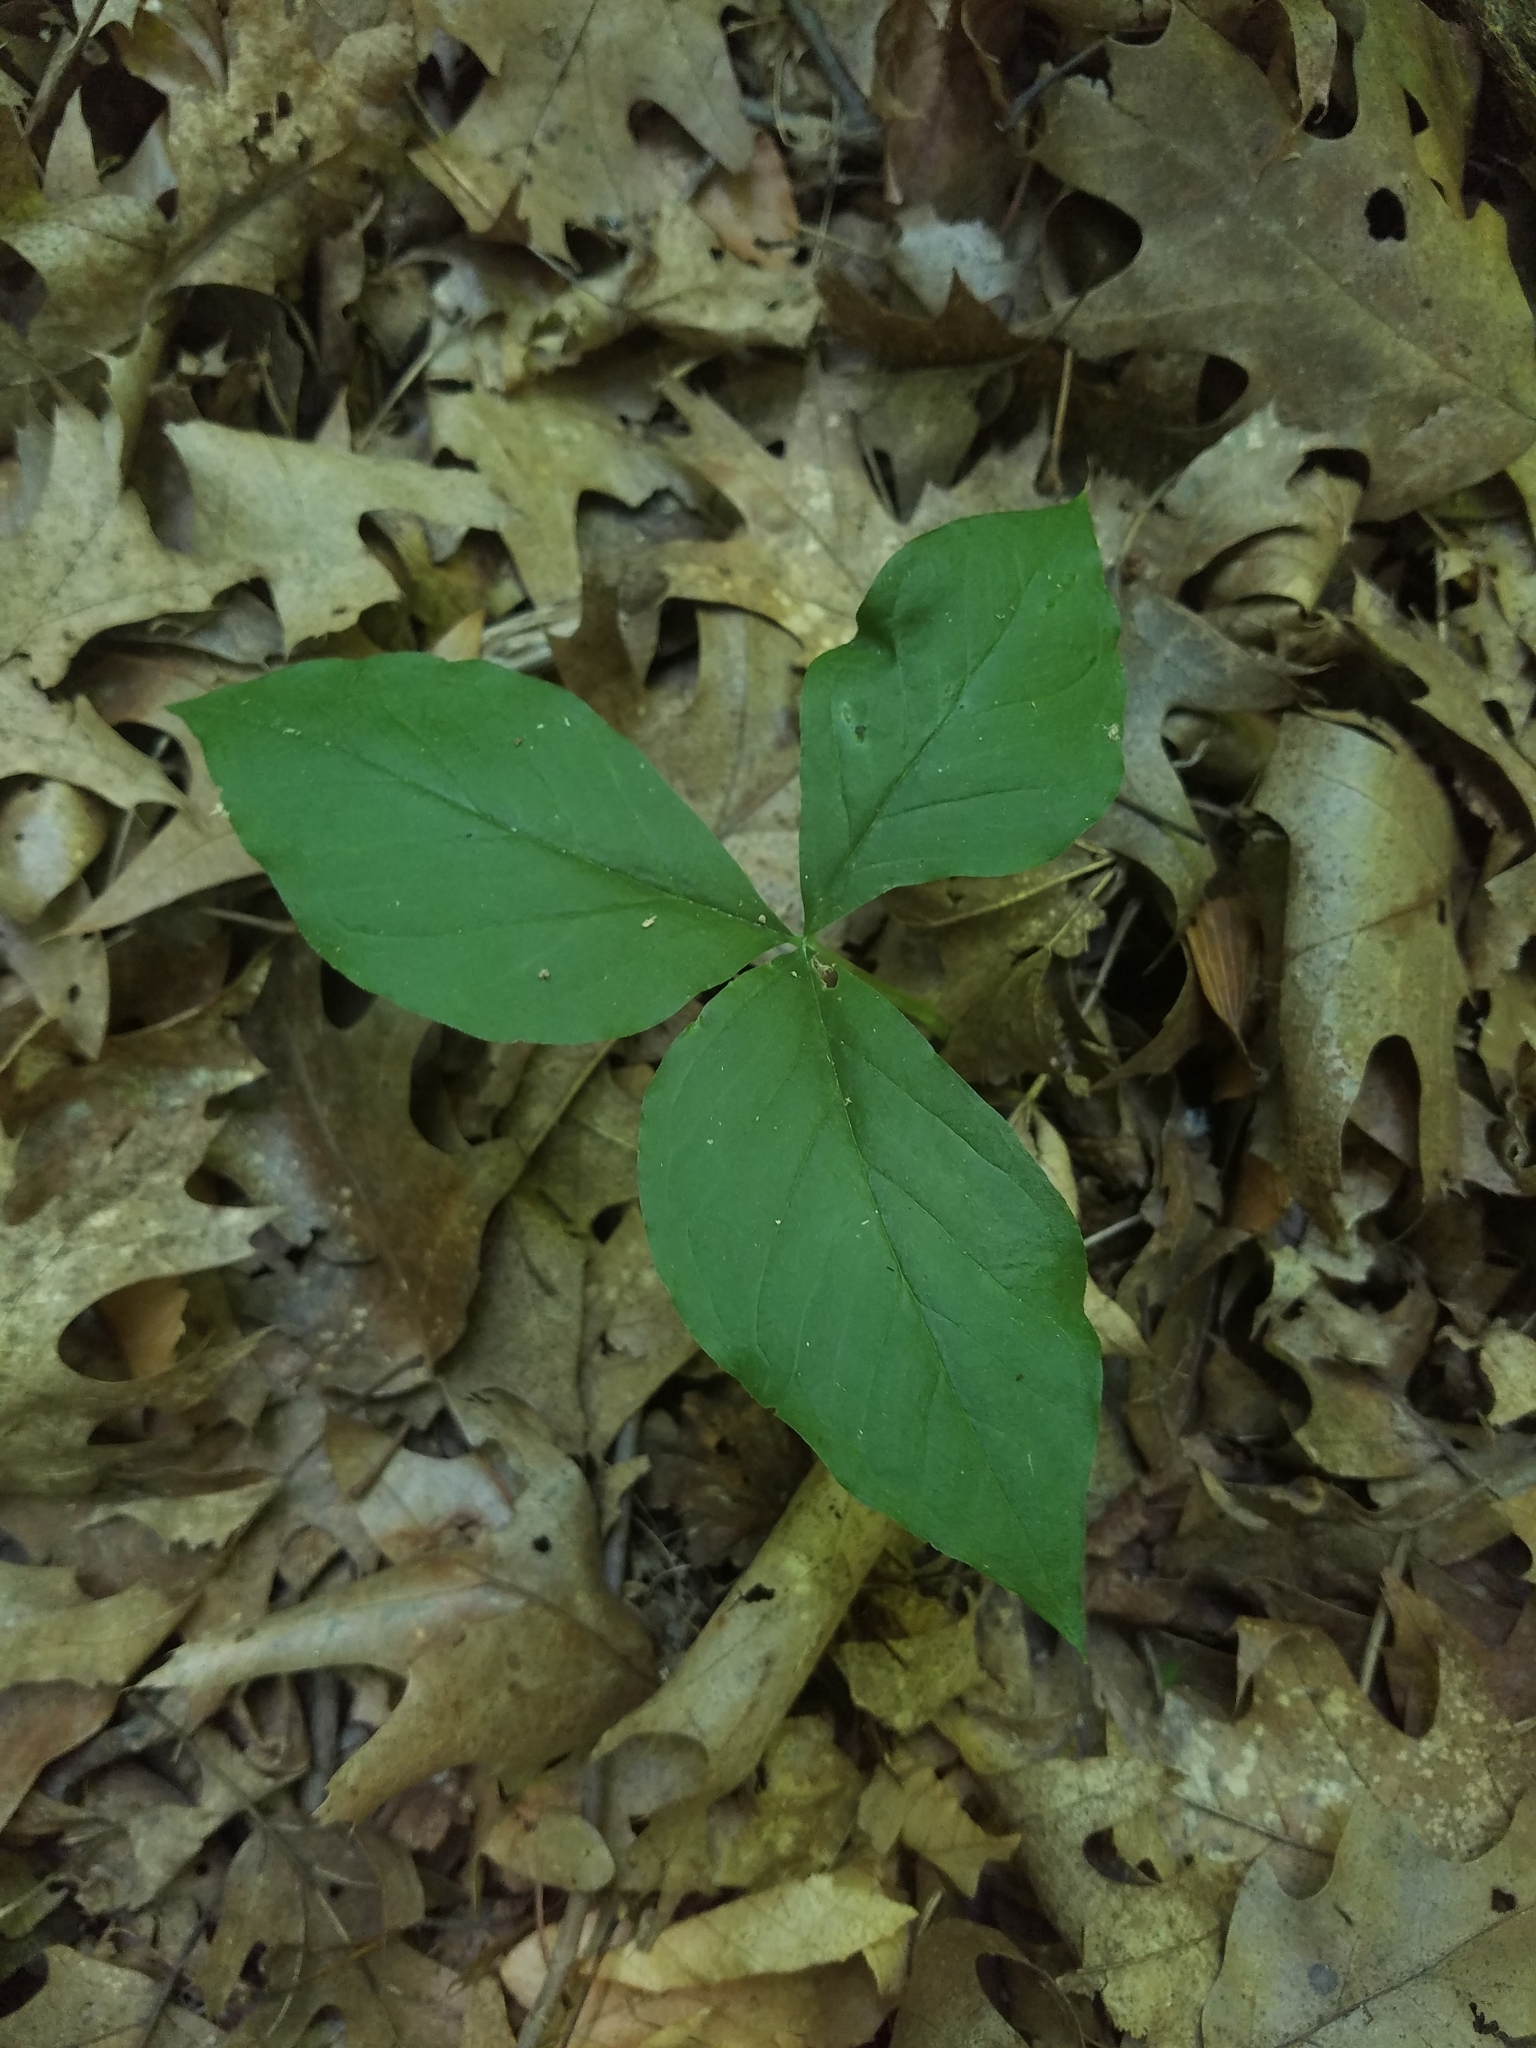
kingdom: Plantae
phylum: Tracheophyta
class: Liliopsida
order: Alismatales
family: Araceae
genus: Arisaema
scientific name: Arisaema triphyllum
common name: Jack-in-the-pulpit
